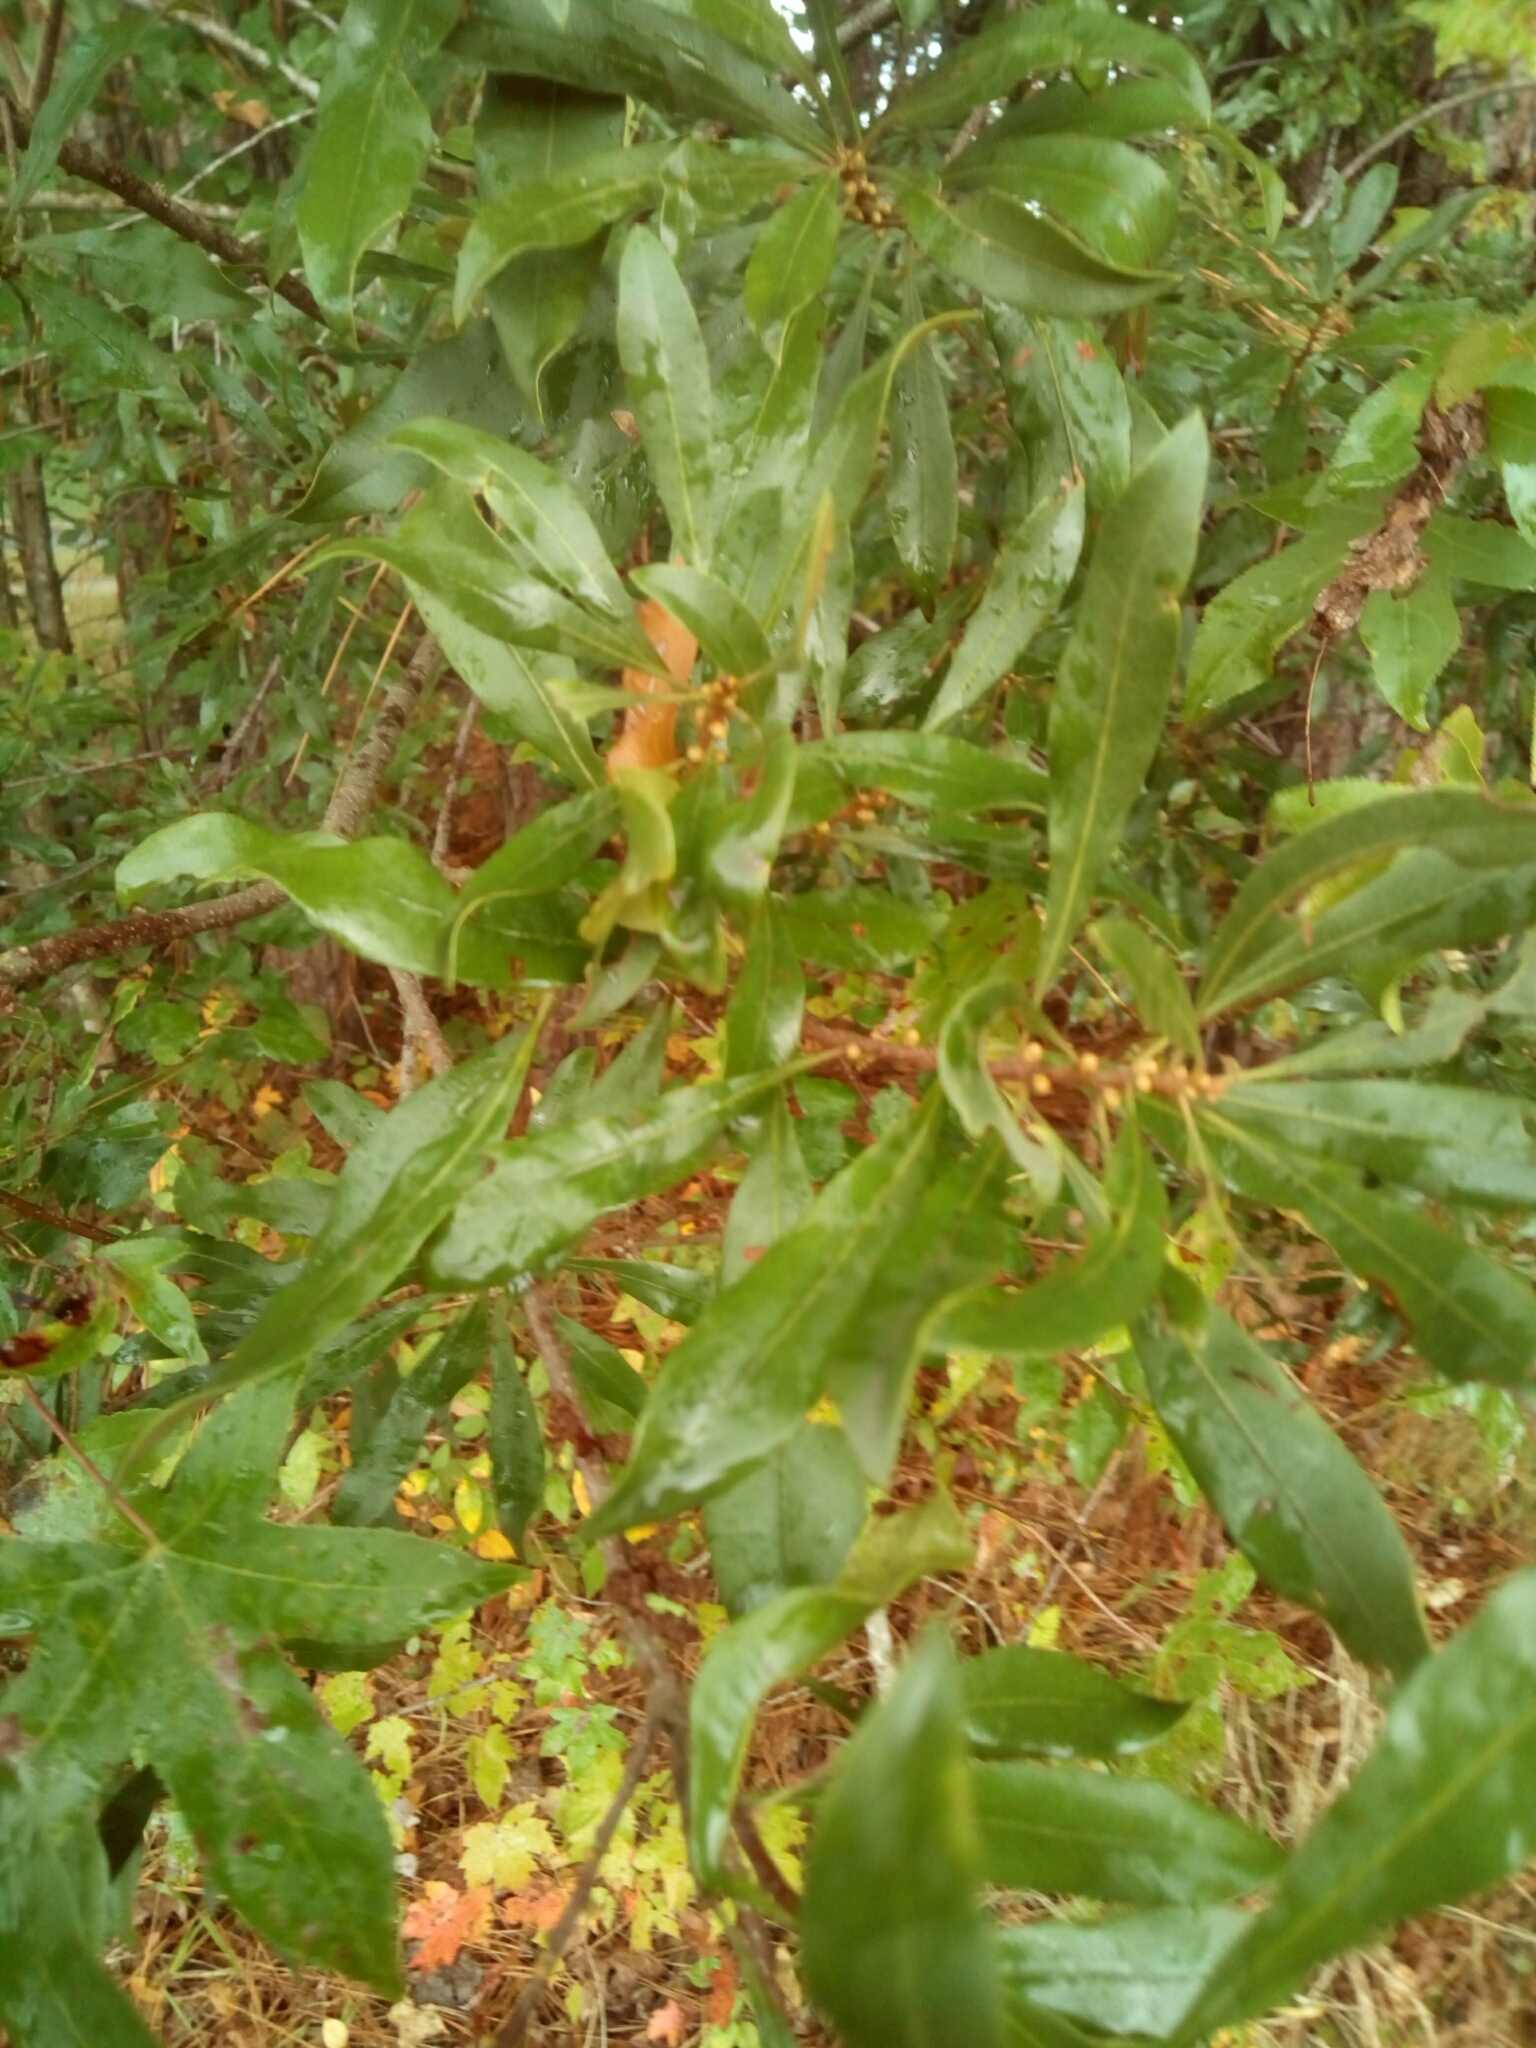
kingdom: Plantae
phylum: Tracheophyta
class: Magnoliopsida
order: Fagales
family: Myricaceae
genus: Morella
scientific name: Morella cerifera
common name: Wax myrtle
